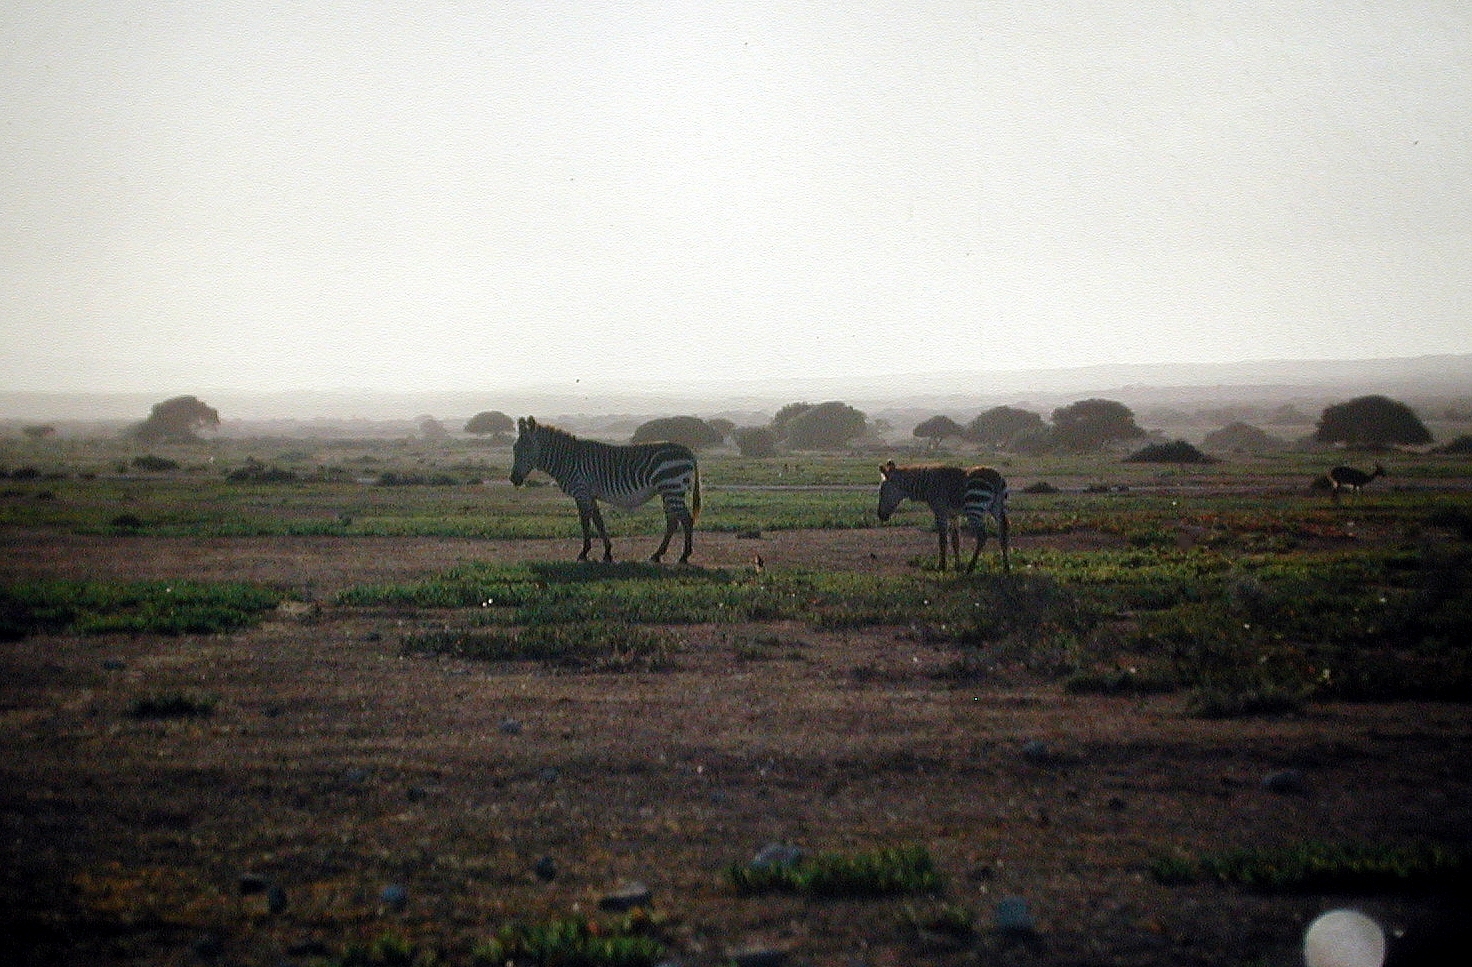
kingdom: Animalia
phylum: Chordata
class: Mammalia
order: Perissodactyla
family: Equidae
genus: Equus
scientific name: Equus zebra
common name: Mountain zebra
